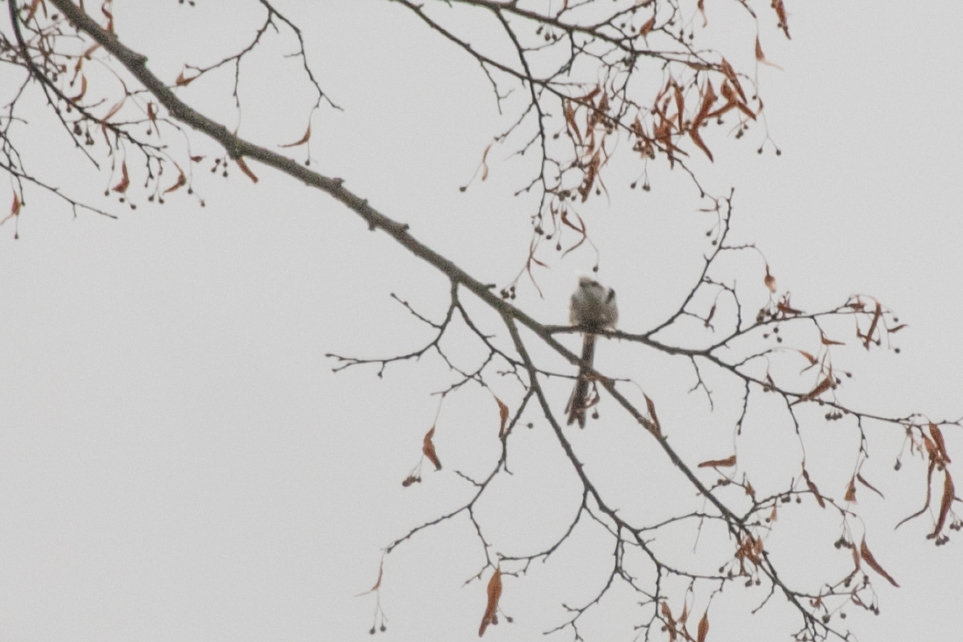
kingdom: Animalia
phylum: Chordata
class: Aves
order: Passeriformes
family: Aegithalidae
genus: Aegithalos
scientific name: Aegithalos caudatus
